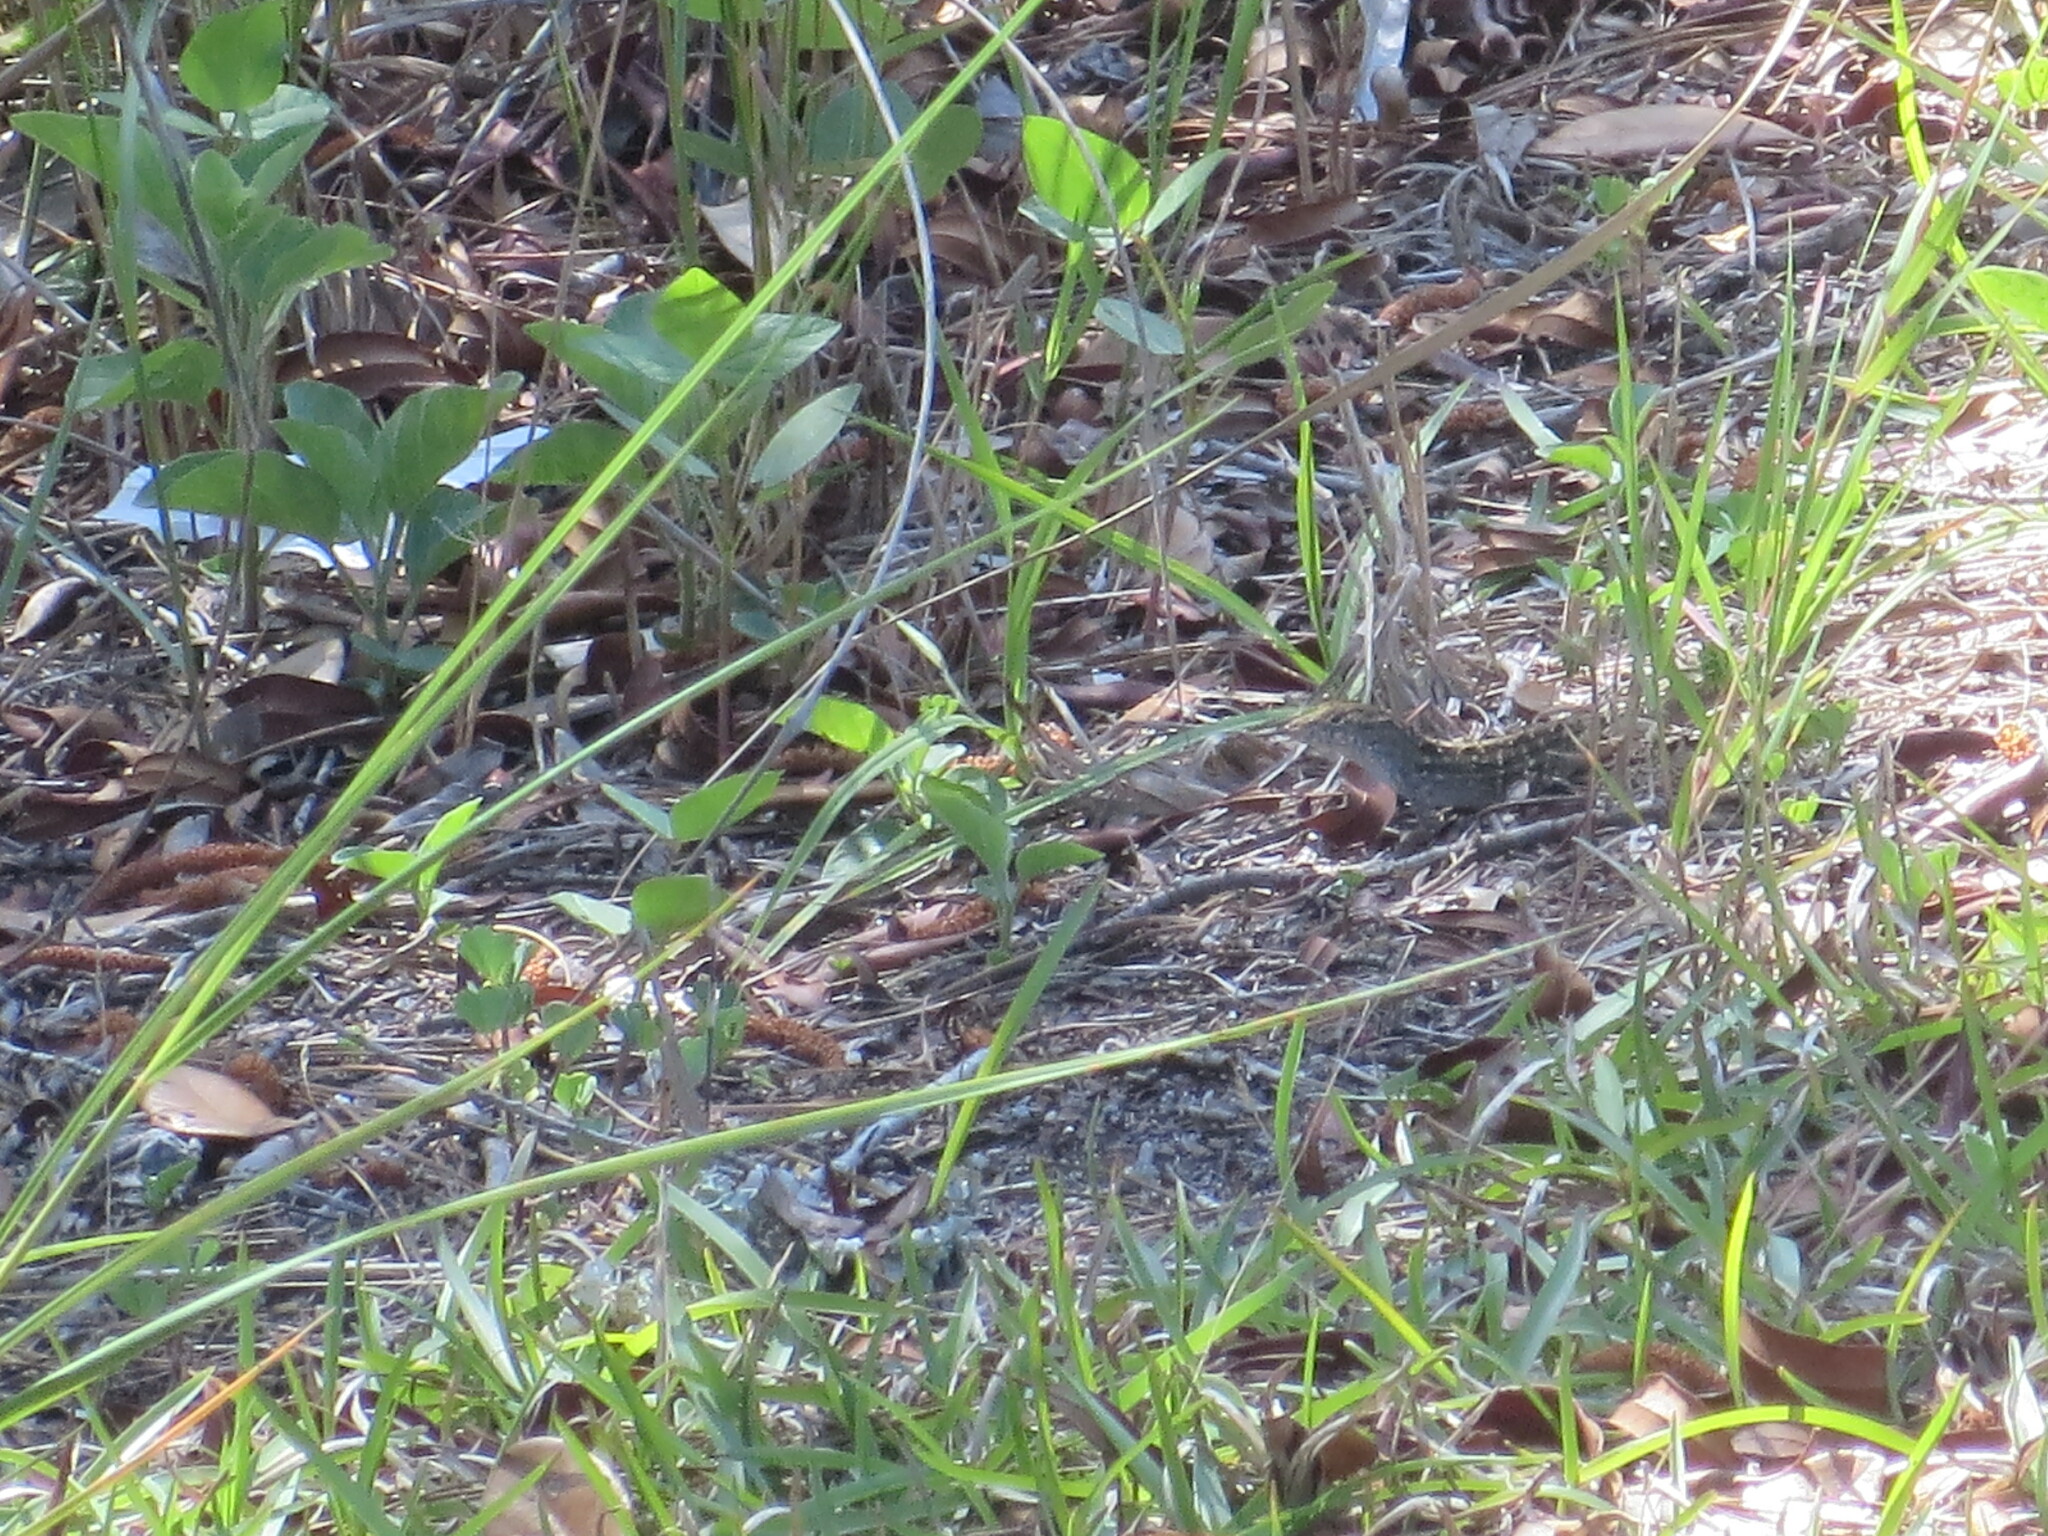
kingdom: Animalia
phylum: Chordata
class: Squamata
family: Dactyloidae
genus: Anolis
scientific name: Anolis sagrei
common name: Brown anole
